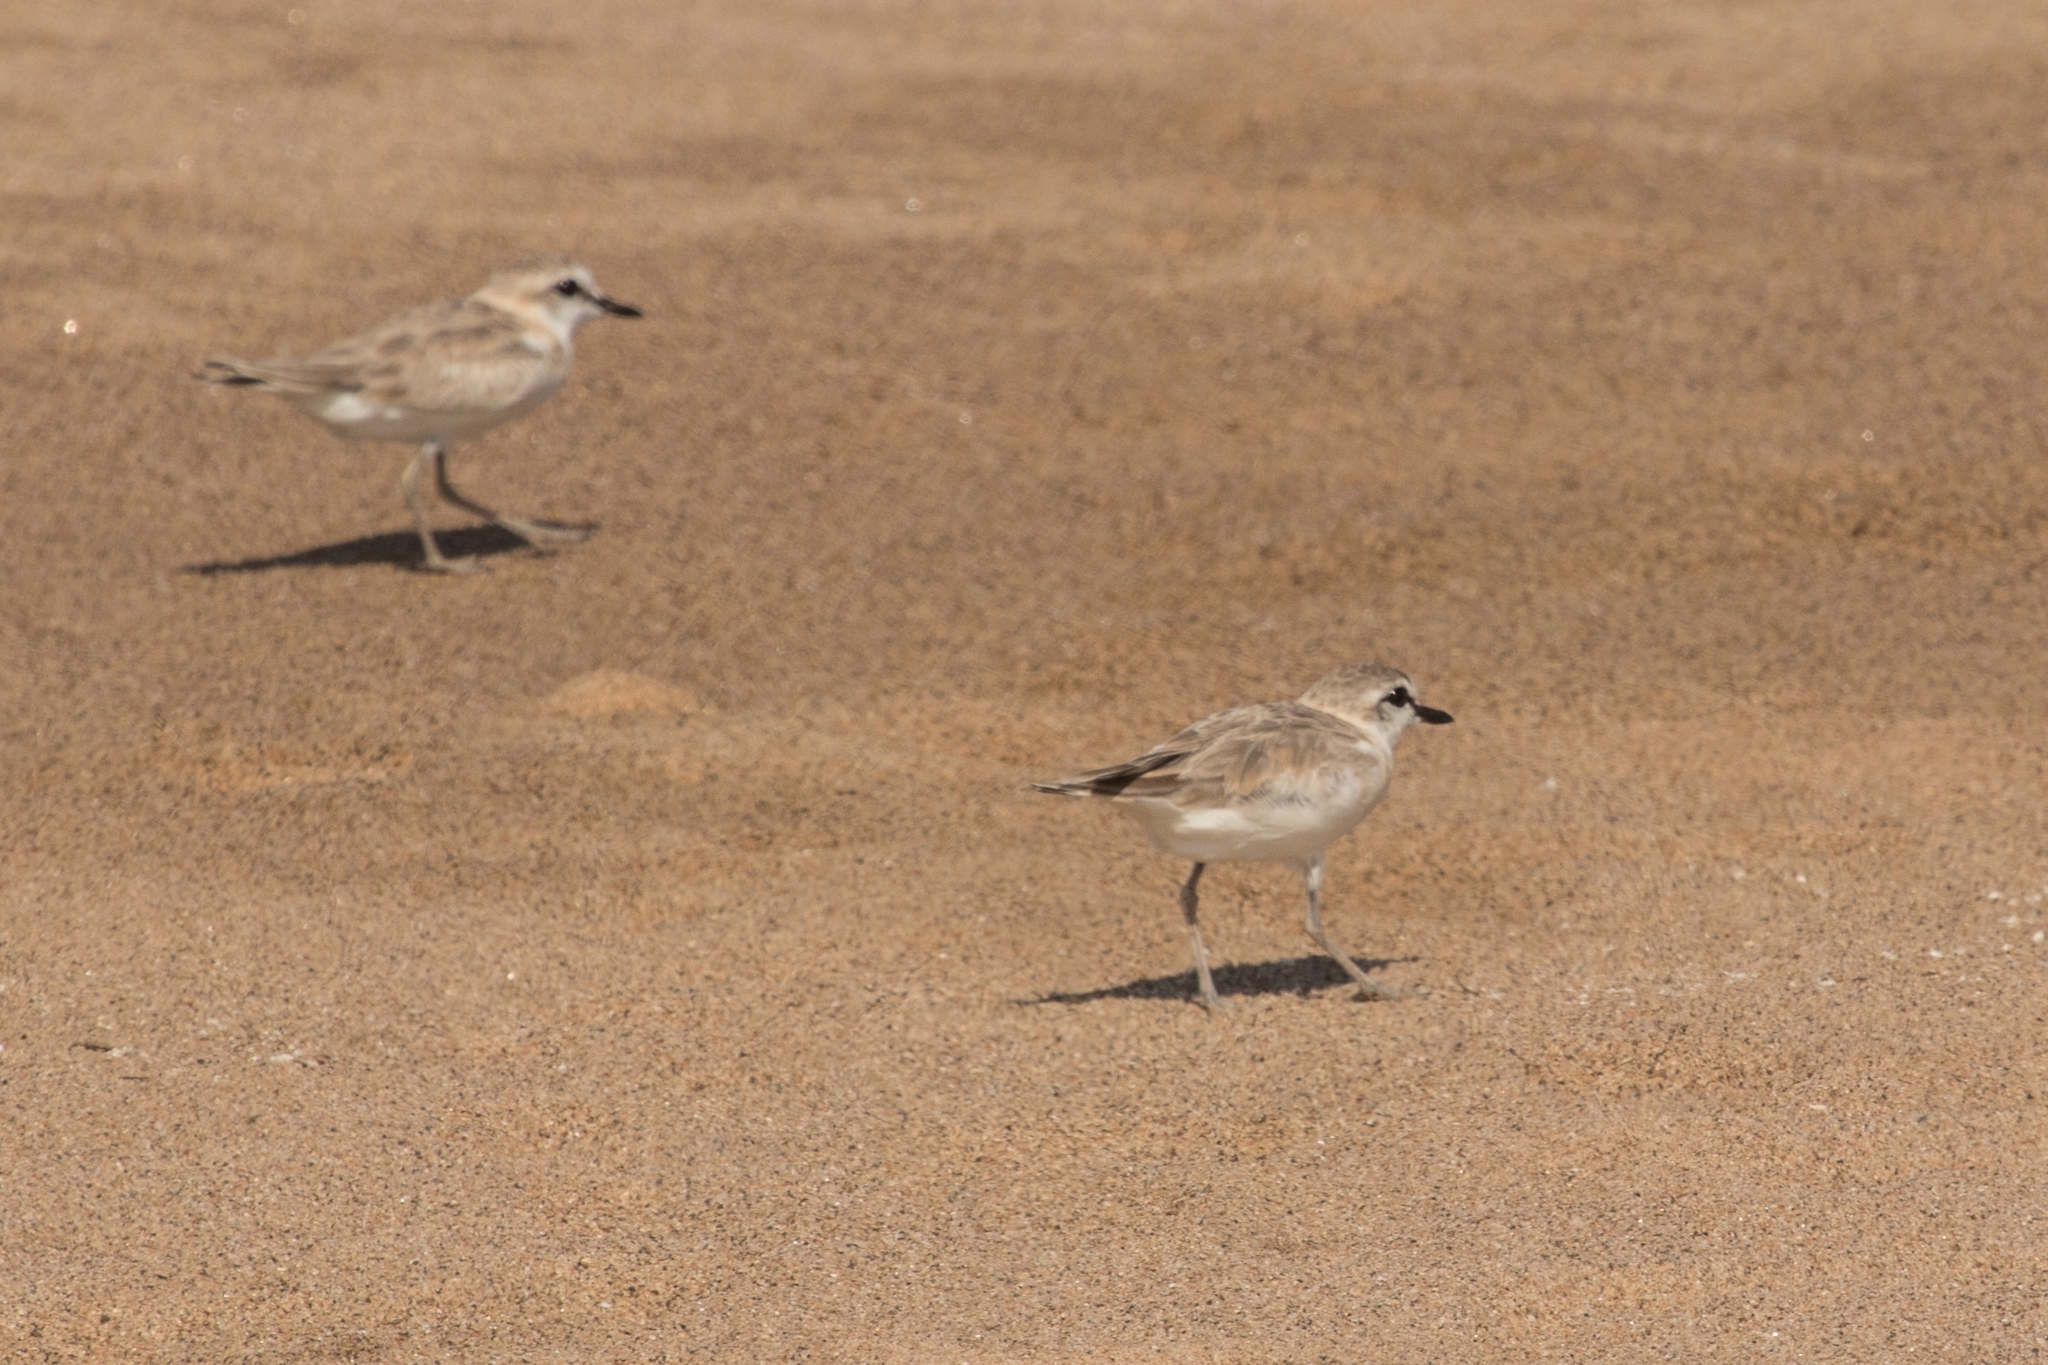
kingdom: Animalia
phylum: Chordata
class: Aves
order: Charadriiformes
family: Charadriidae
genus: Anarhynchus
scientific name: Anarhynchus
